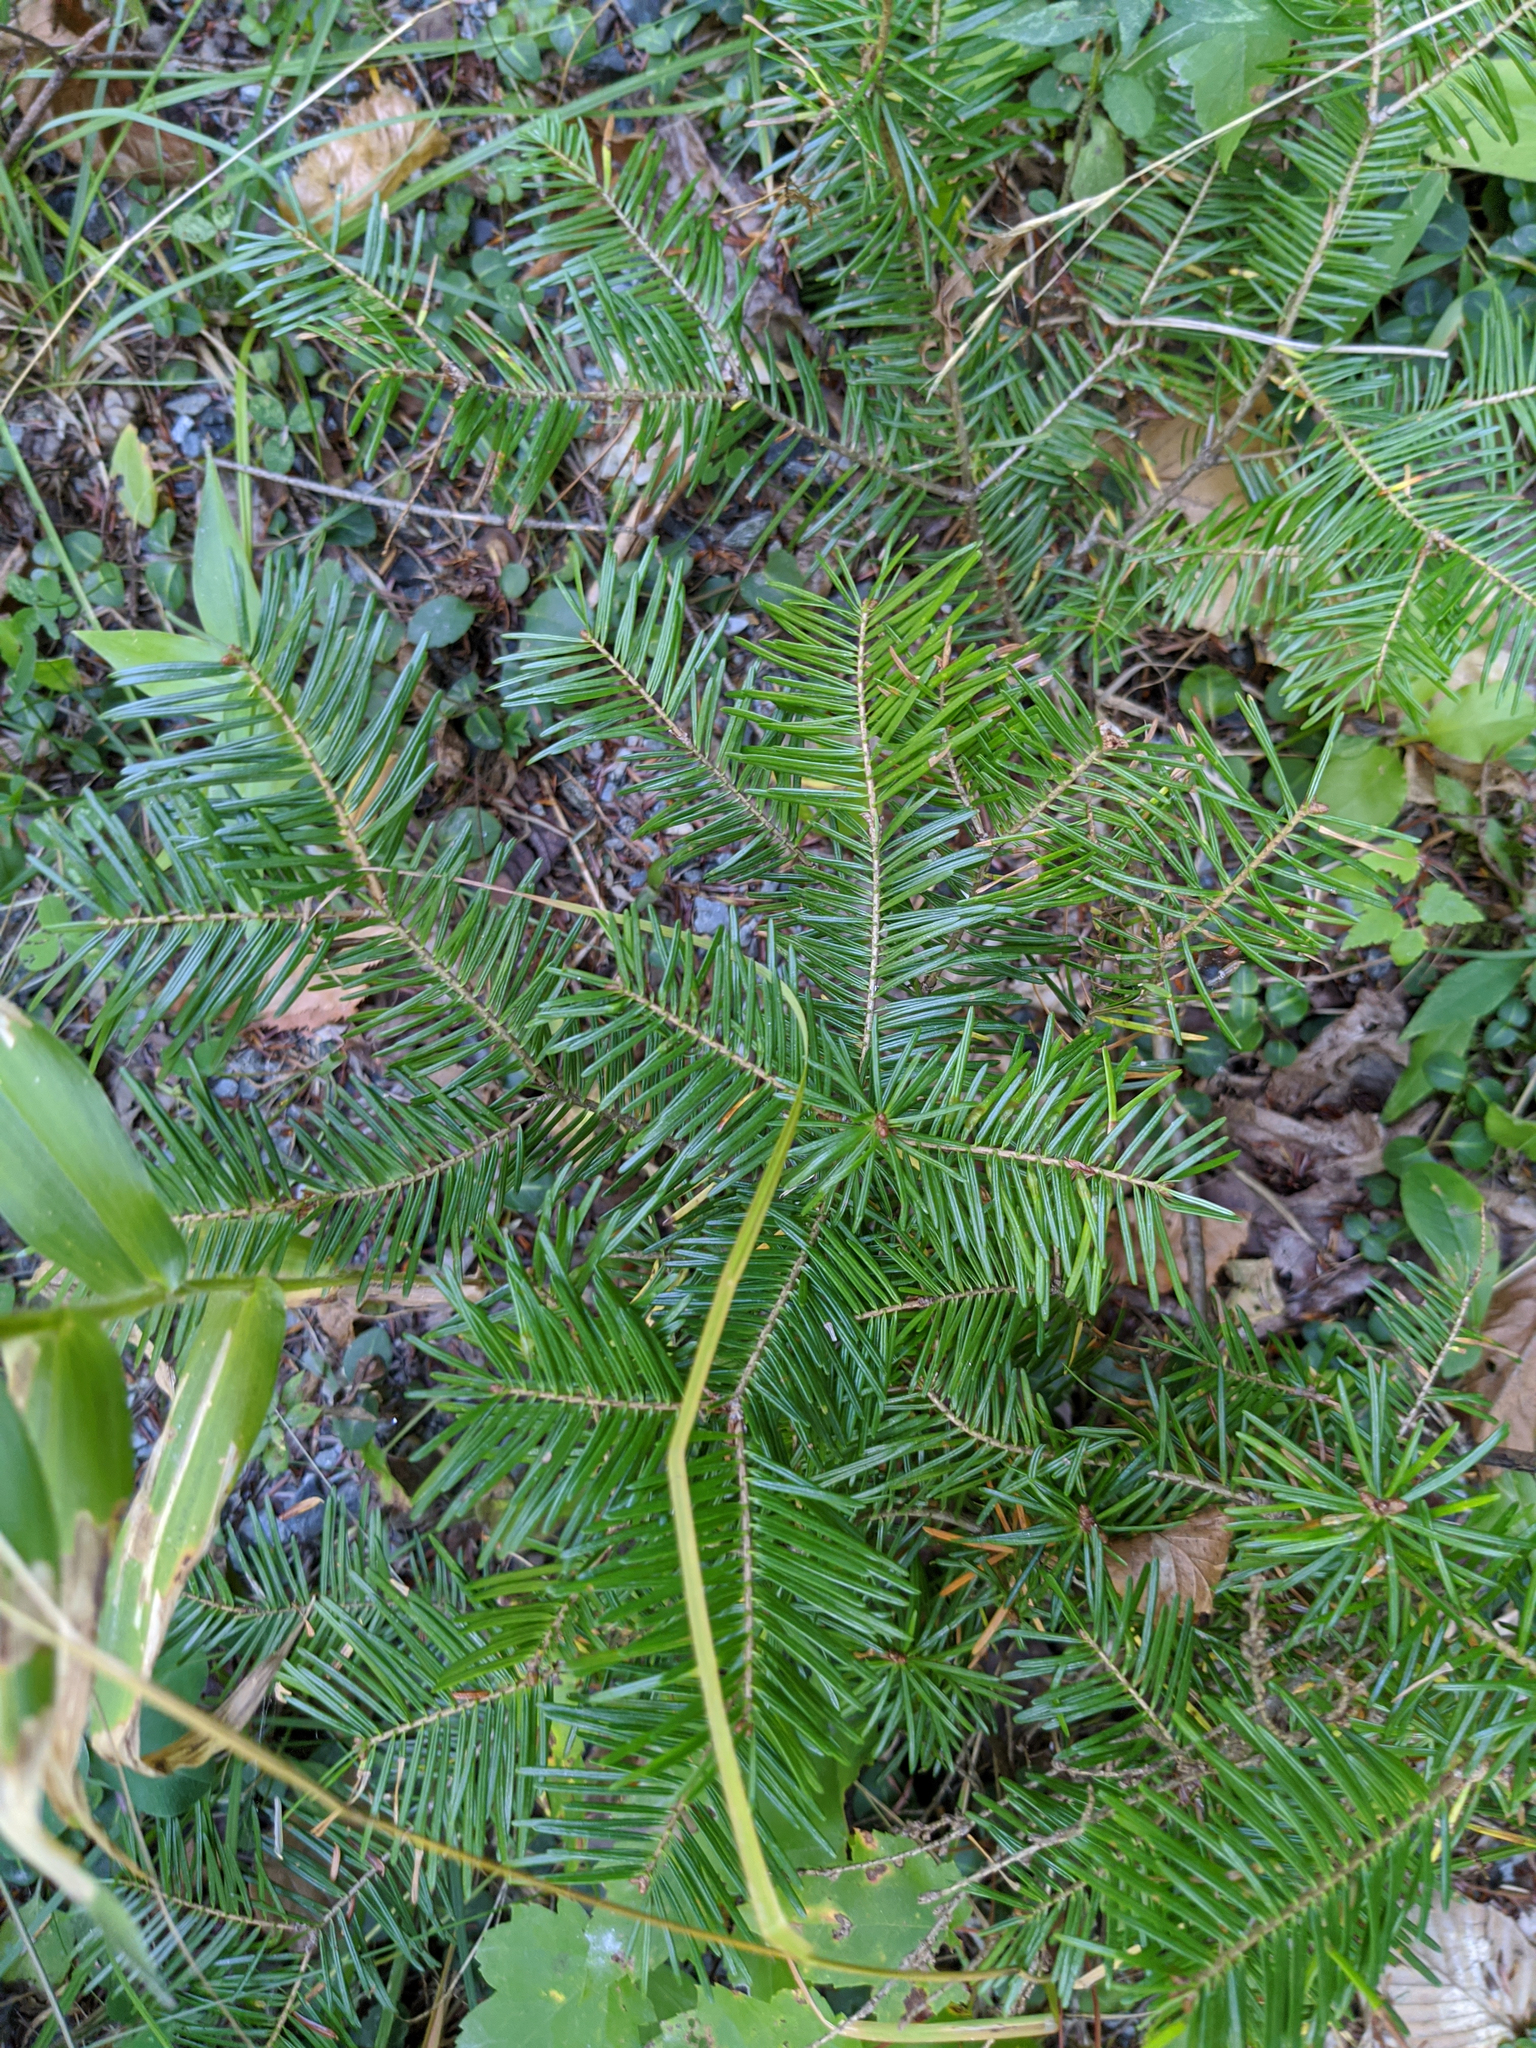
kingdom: Plantae
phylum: Tracheophyta
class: Pinopsida
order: Pinales
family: Pinaceae
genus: Abies
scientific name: Abies balsamea
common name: Balsam fir
